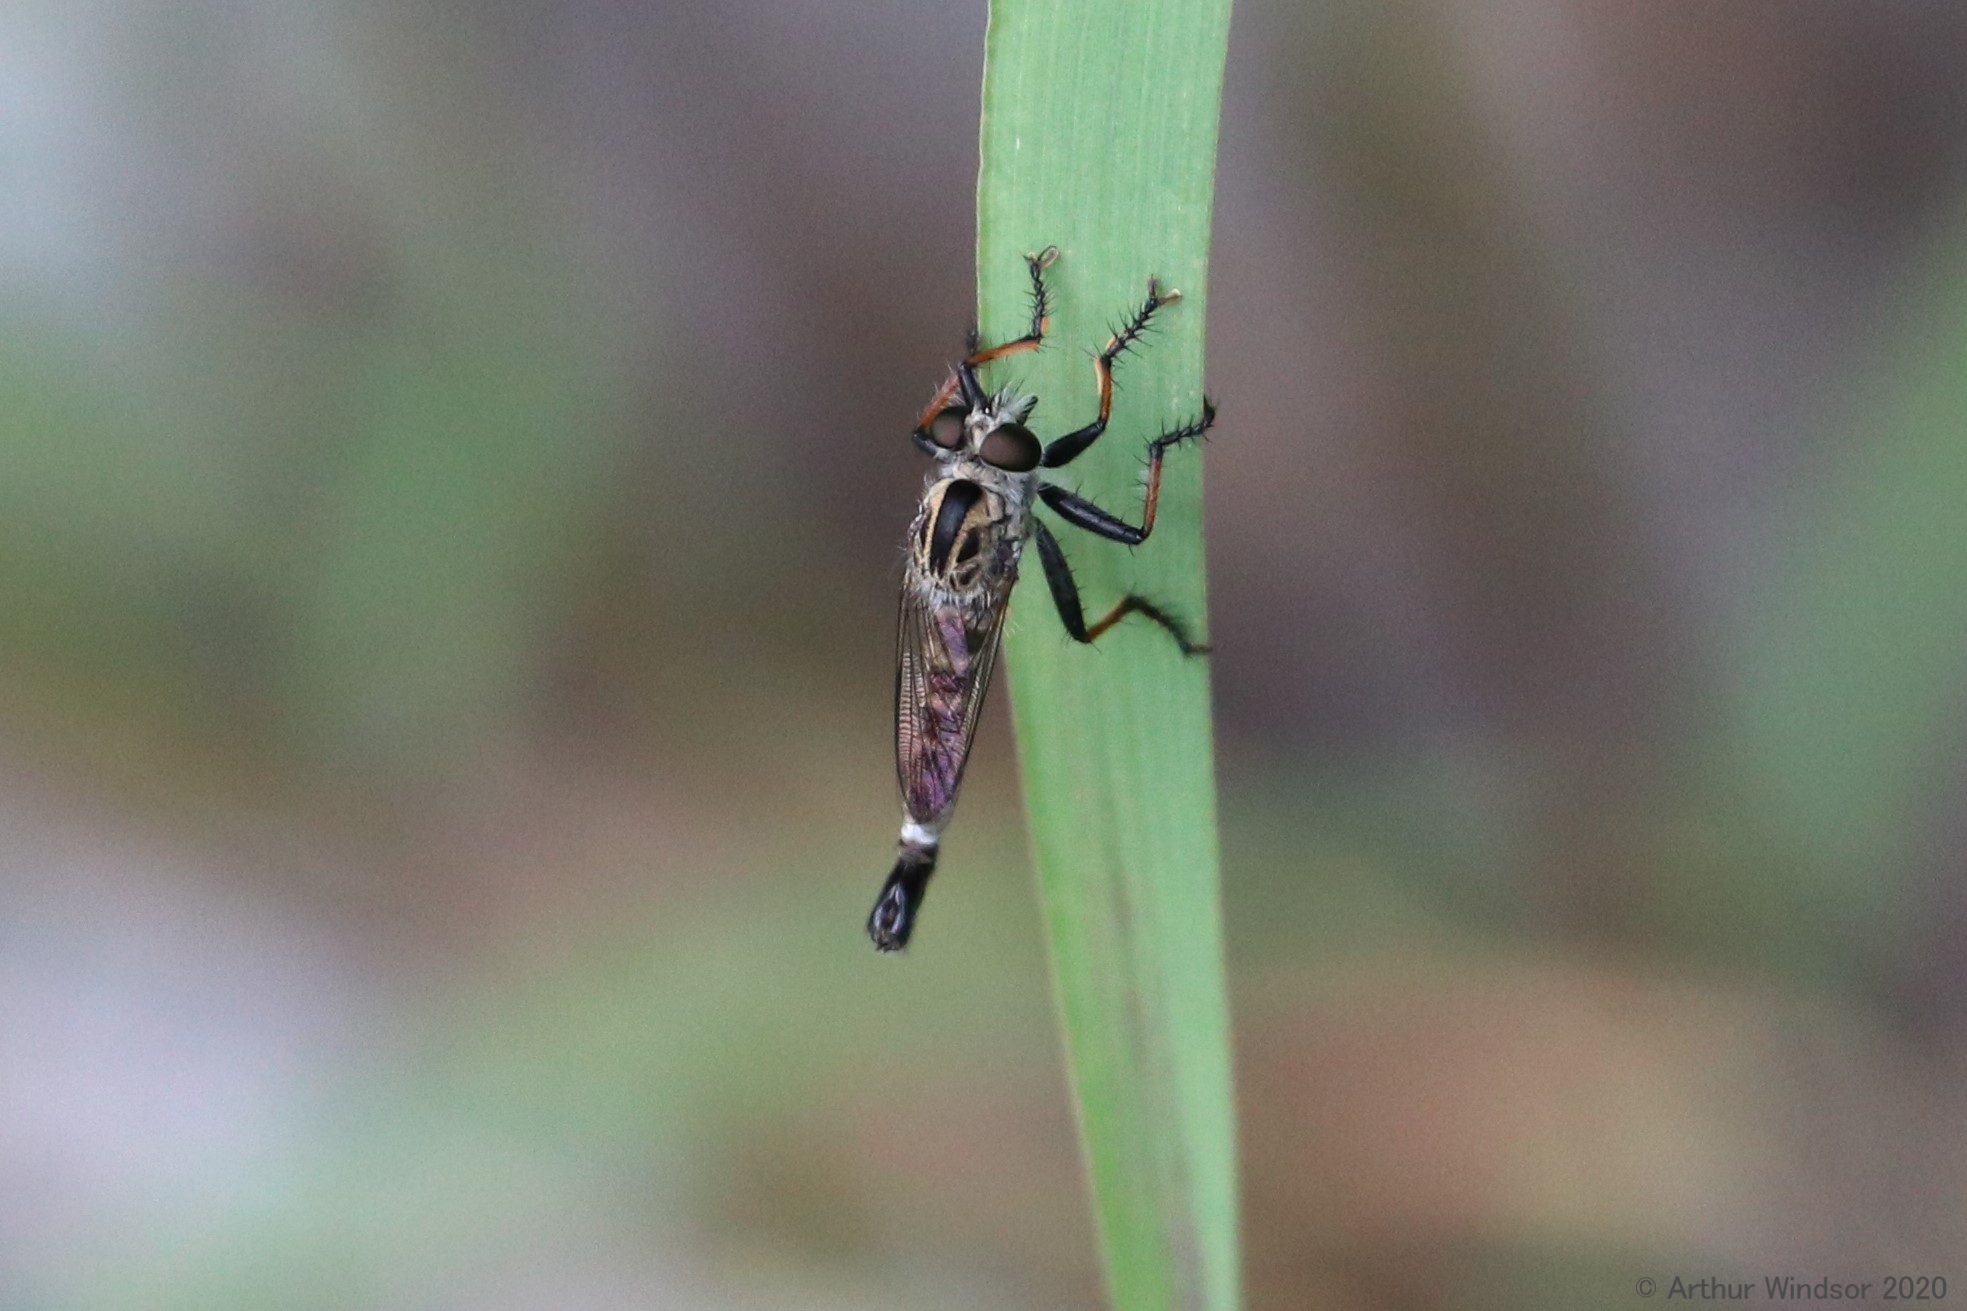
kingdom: Animalia
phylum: Arthropoda
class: Insecta
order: Diptera
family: Asilidae
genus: Efferia
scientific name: Efferia tabescens
